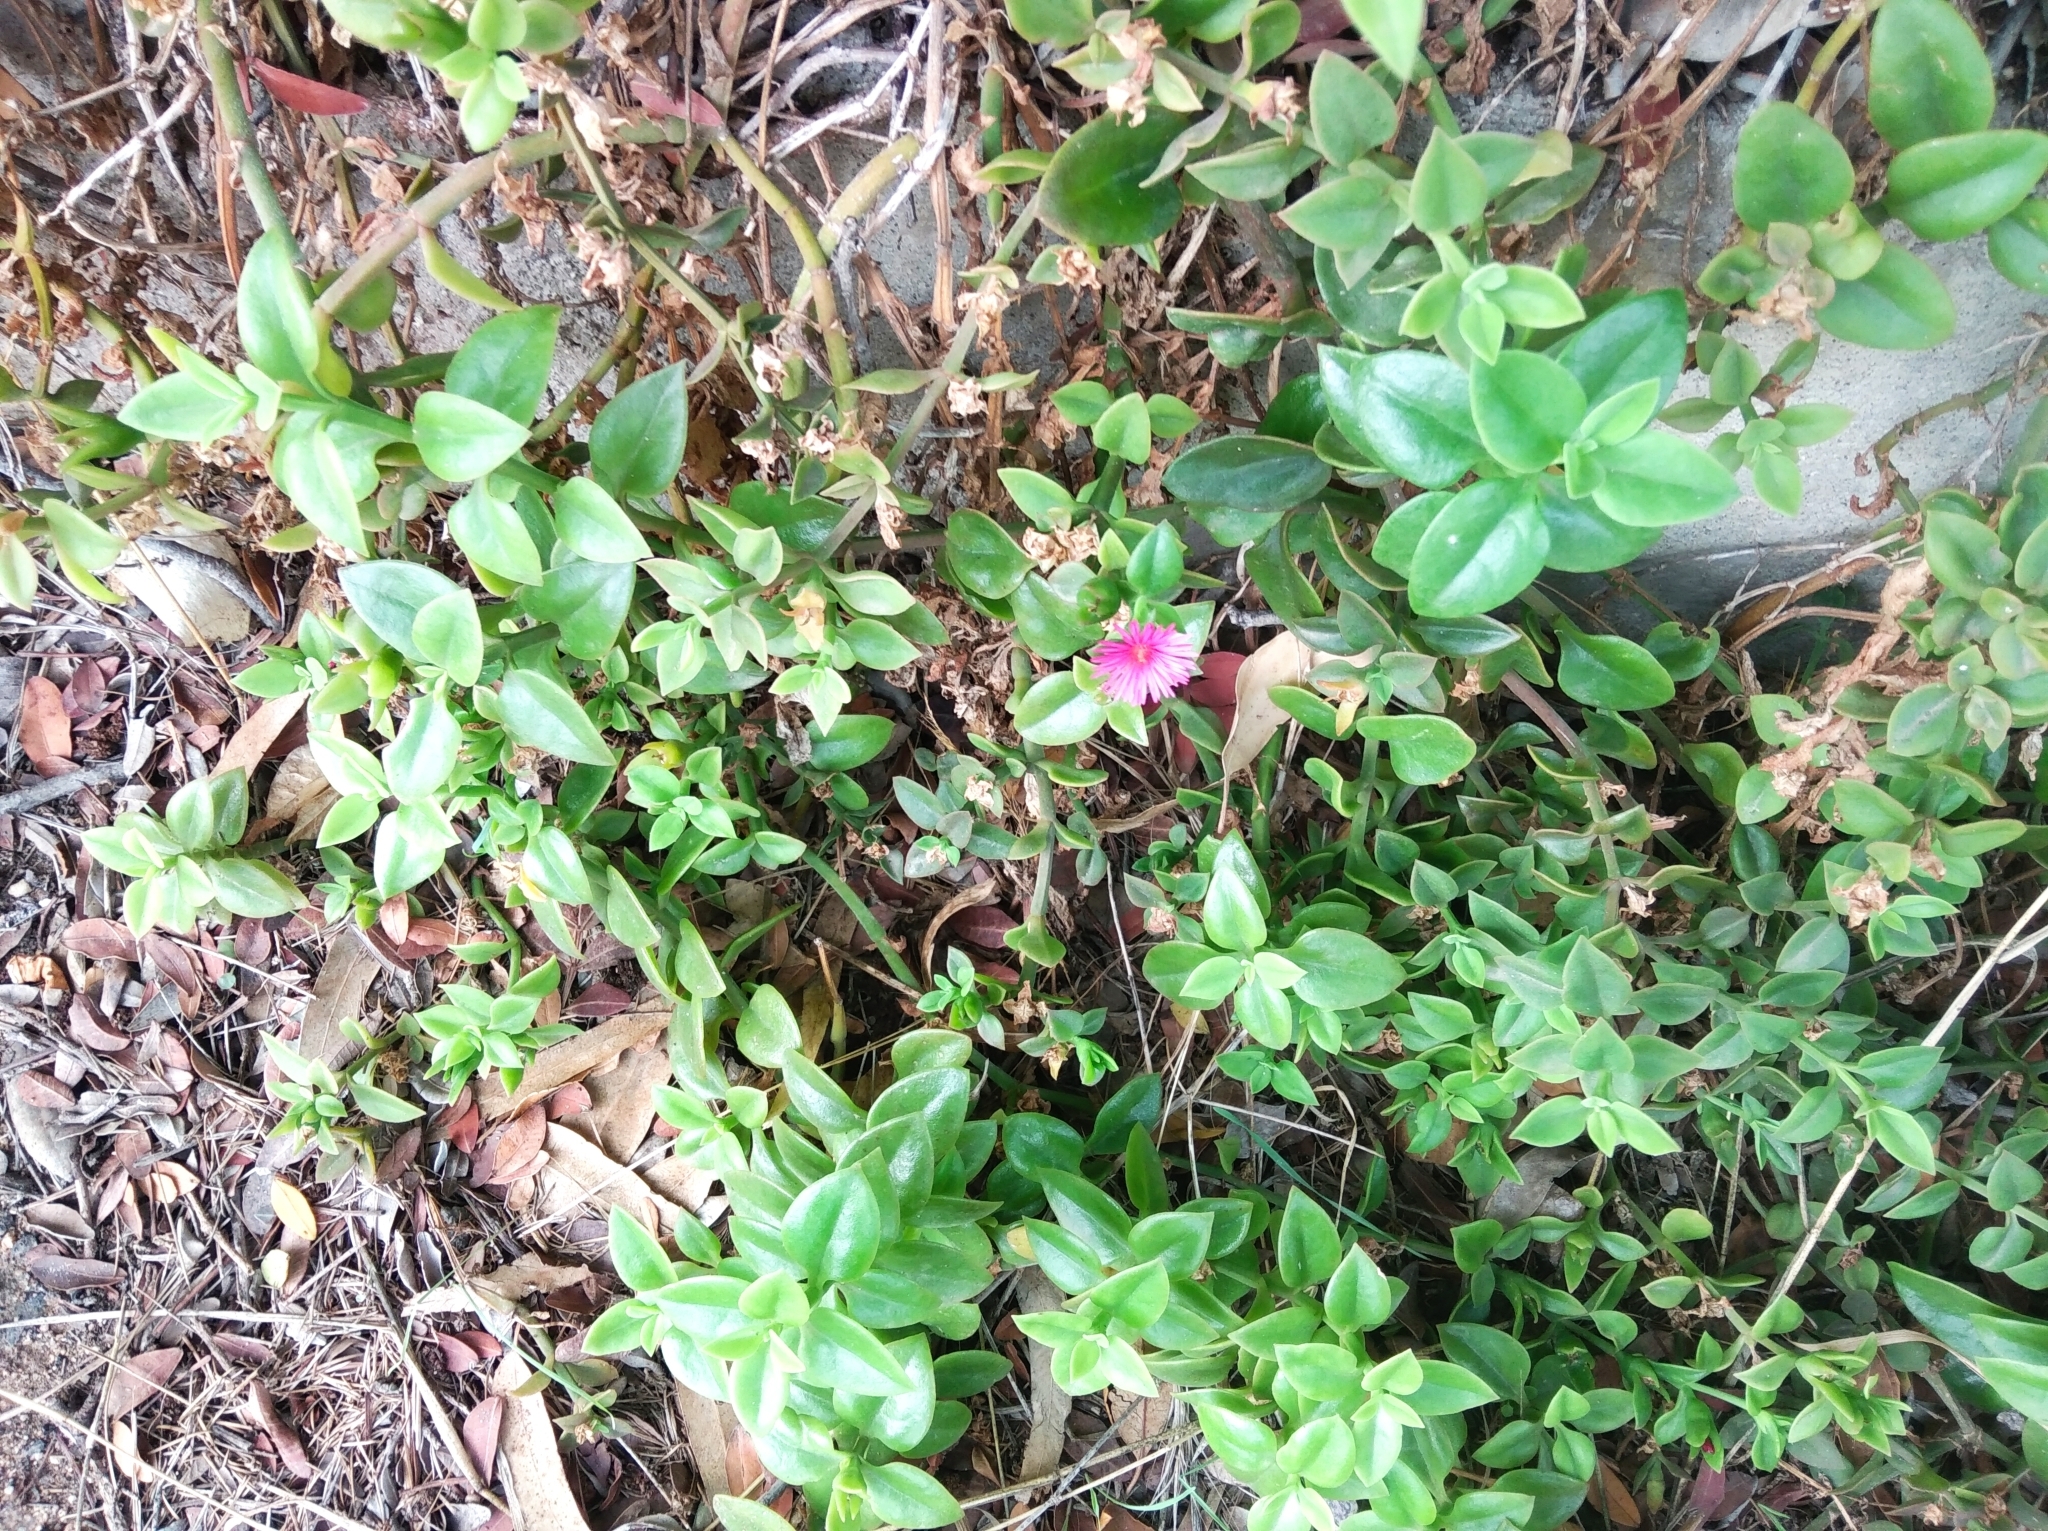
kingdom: Plantae
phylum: Tracheophyta
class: Magnoliopsida
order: Caryophyllales
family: Aizoaceae
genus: Mesembryanthemum
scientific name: Mesembryanthemum cordifolium
